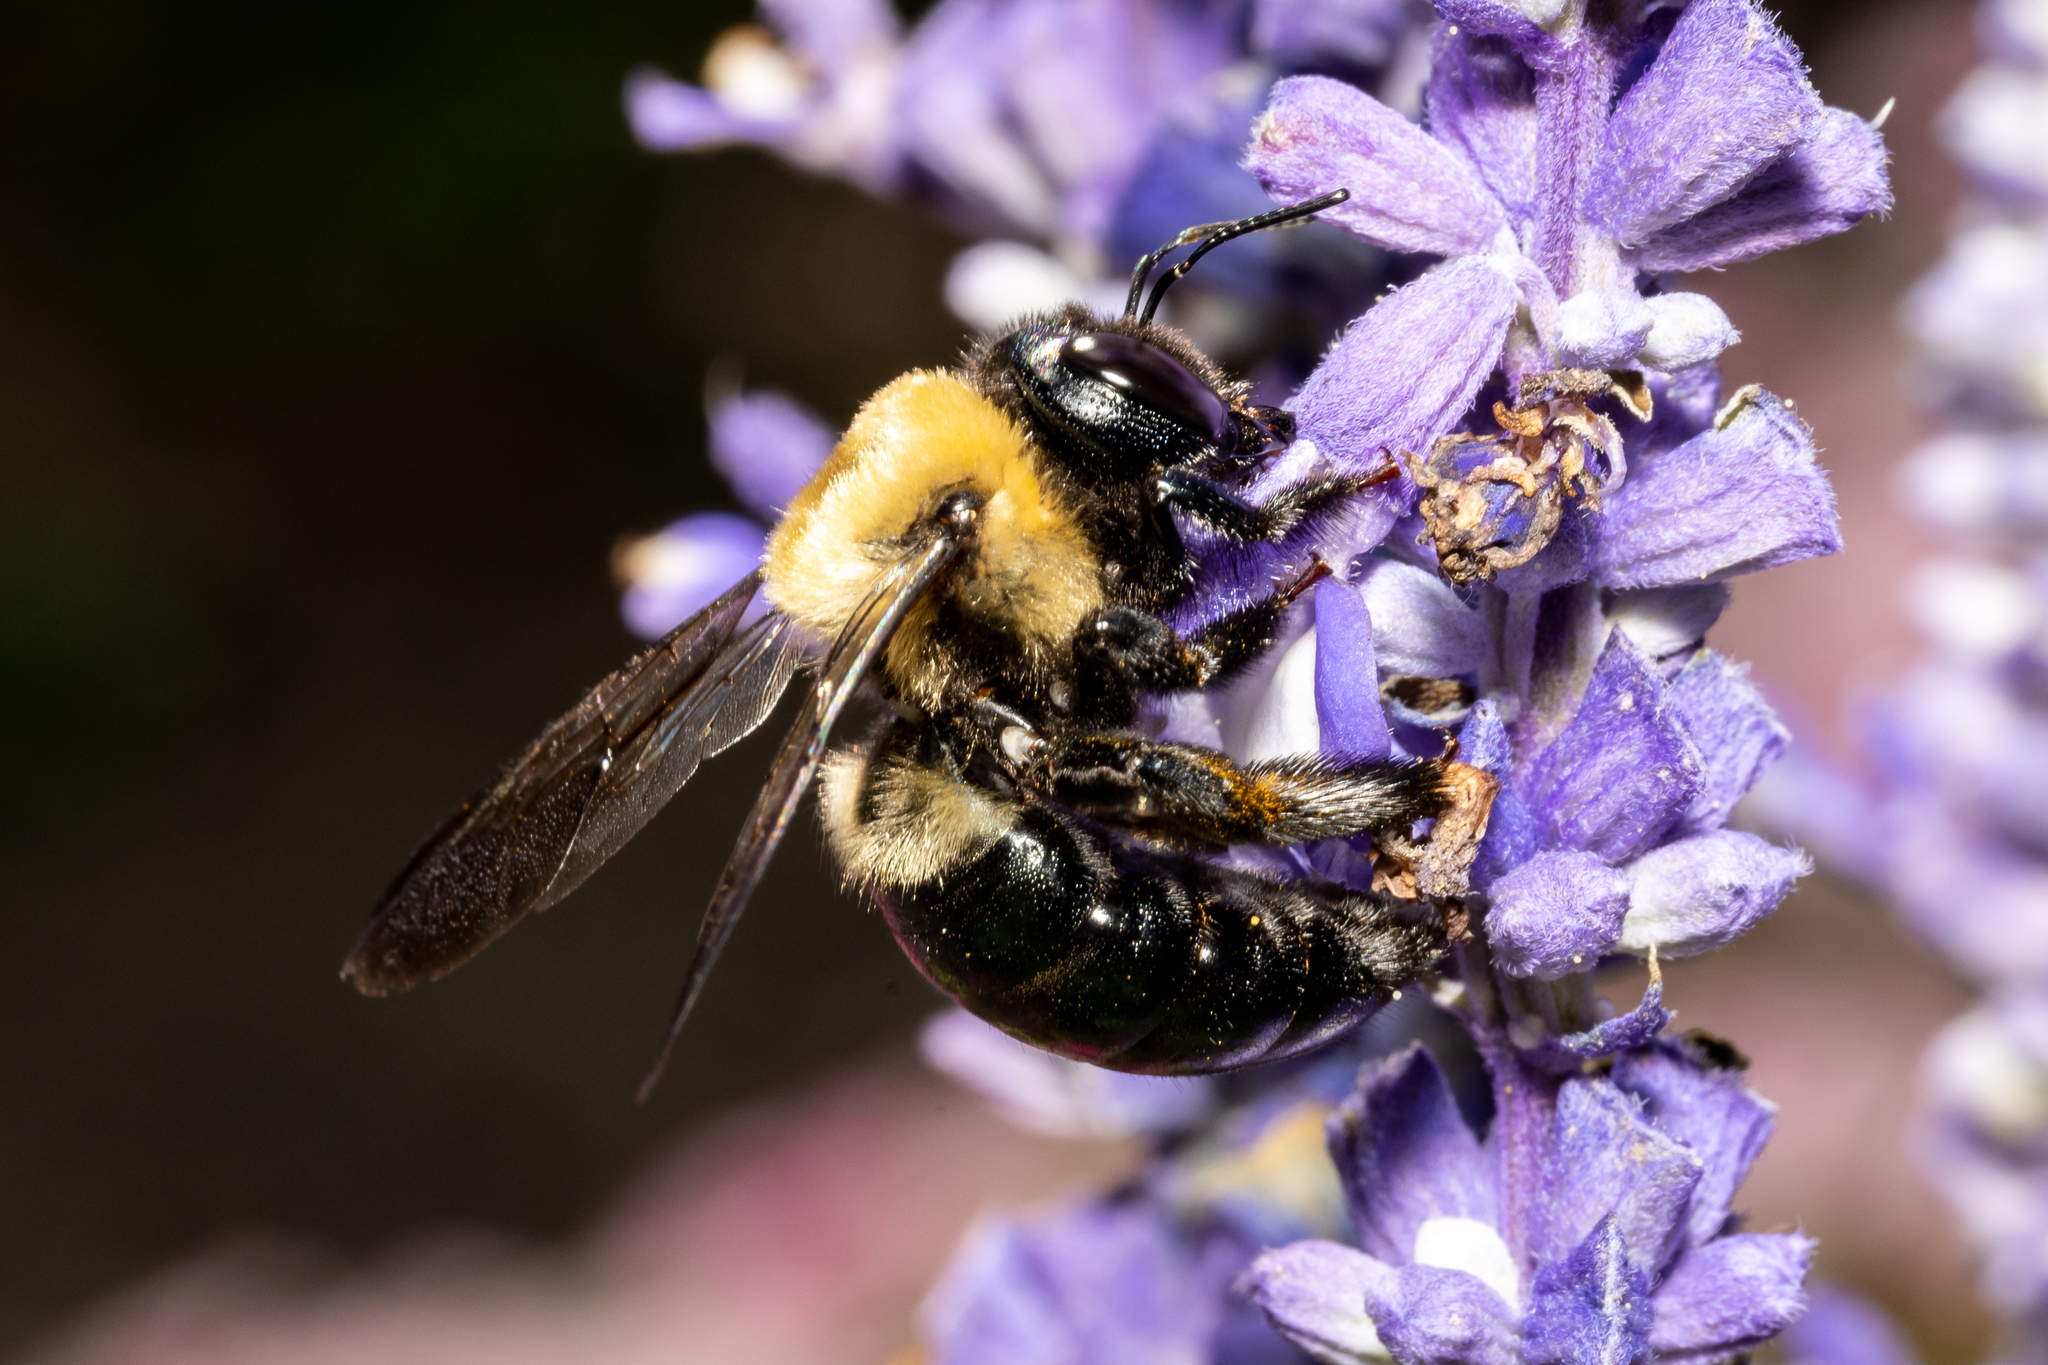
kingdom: Animalia
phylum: Arthropoda
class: Insecta
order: Hymenoptera
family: Apidae
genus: Xylocopa
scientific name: Xylocopa virginica
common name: Carpenter bee
